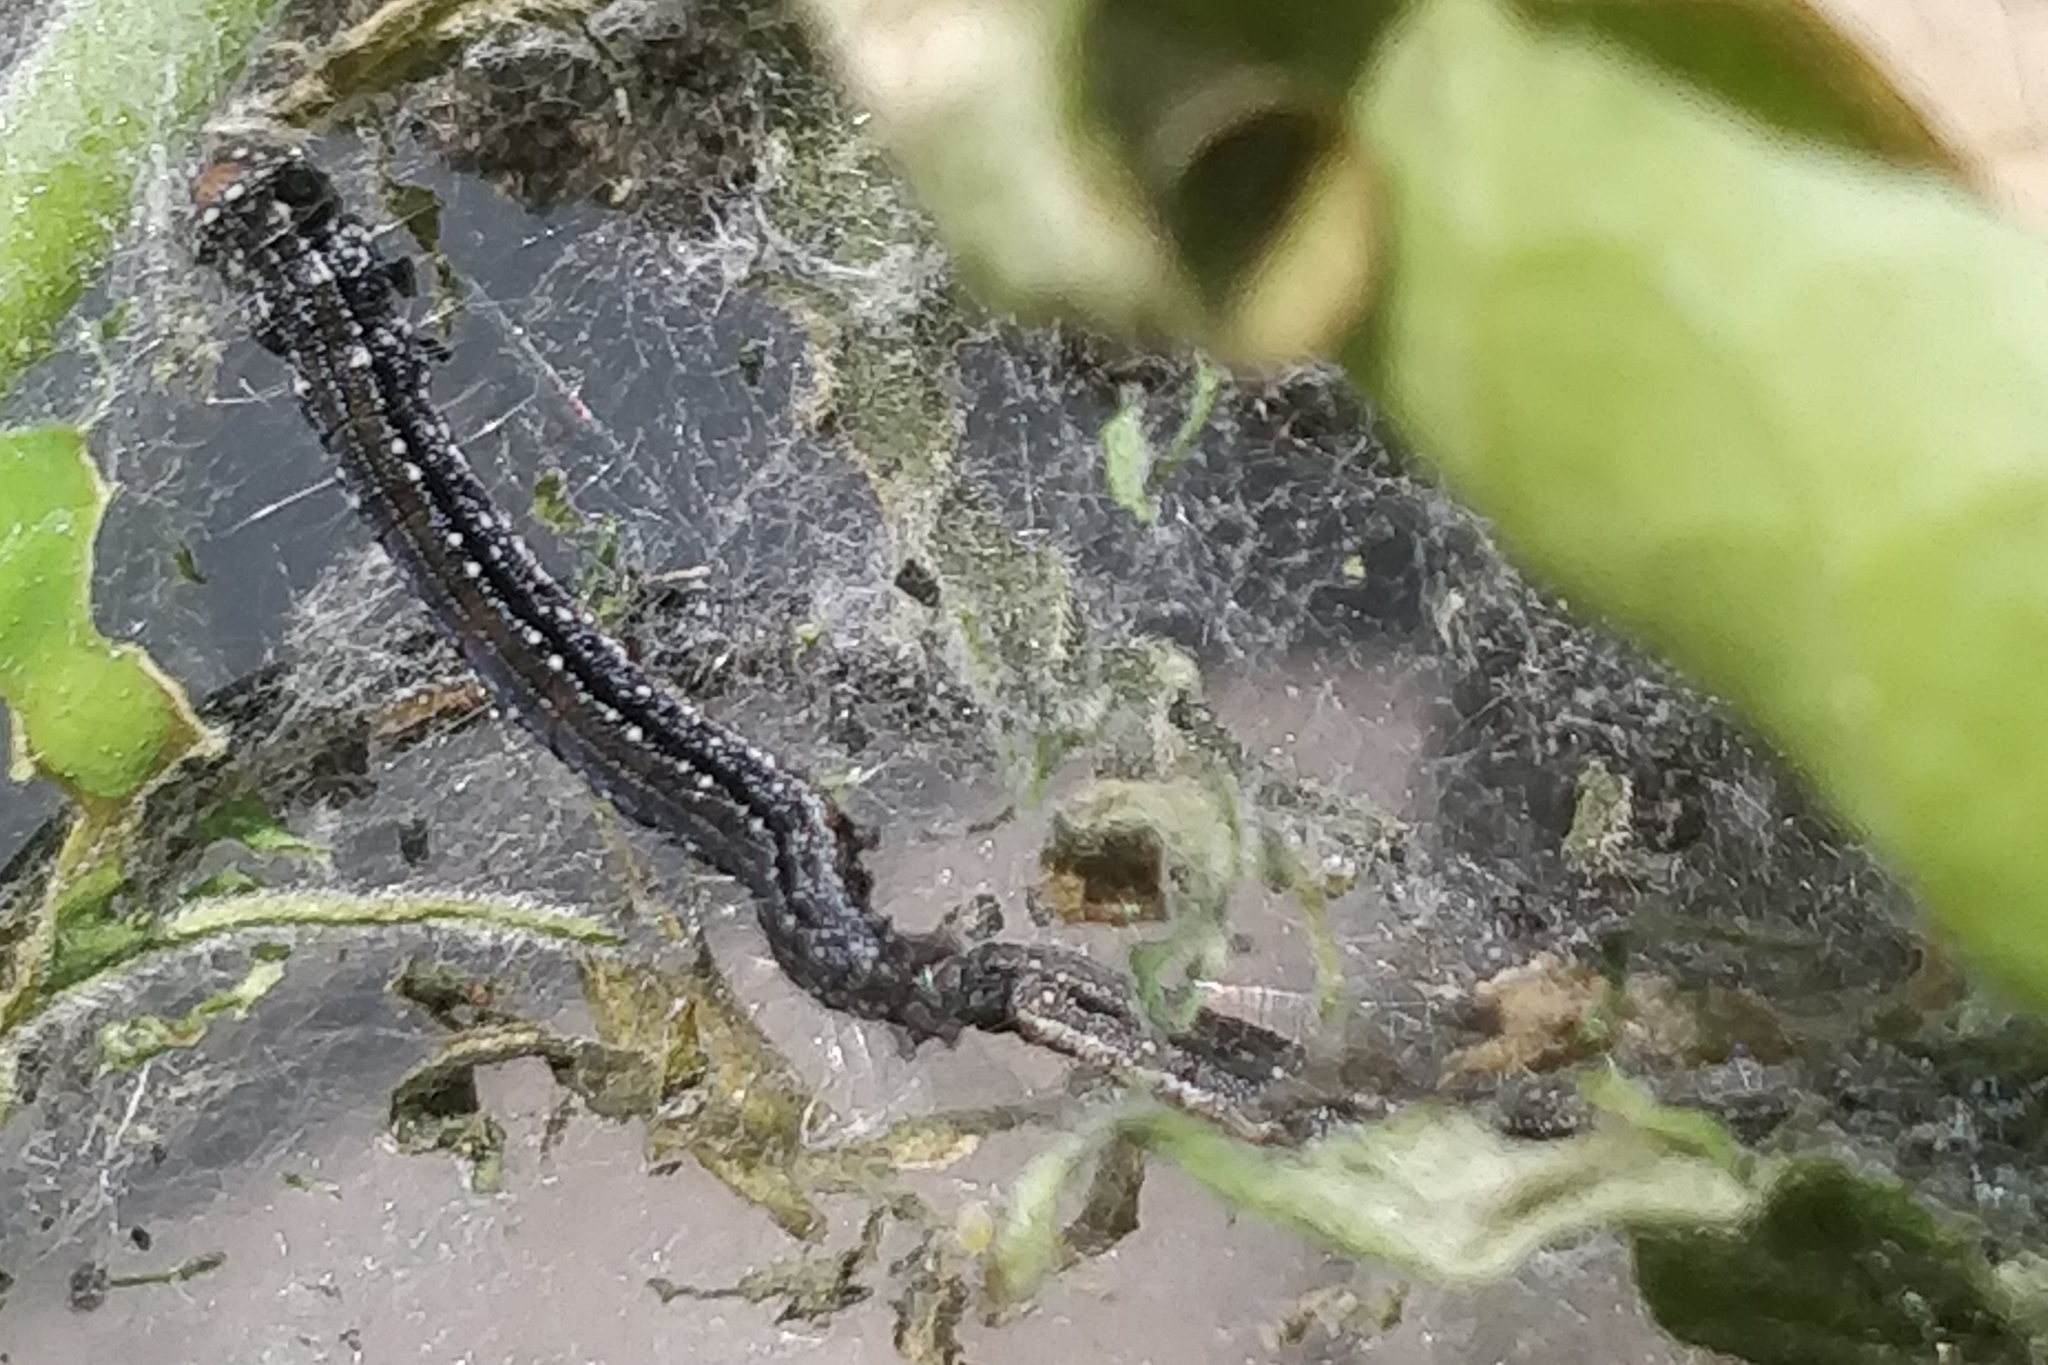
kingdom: Animalia
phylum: Arthropoda
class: Insecta
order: Lepidoptera
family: Attevidae
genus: Atteva
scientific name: Atteva punctella
